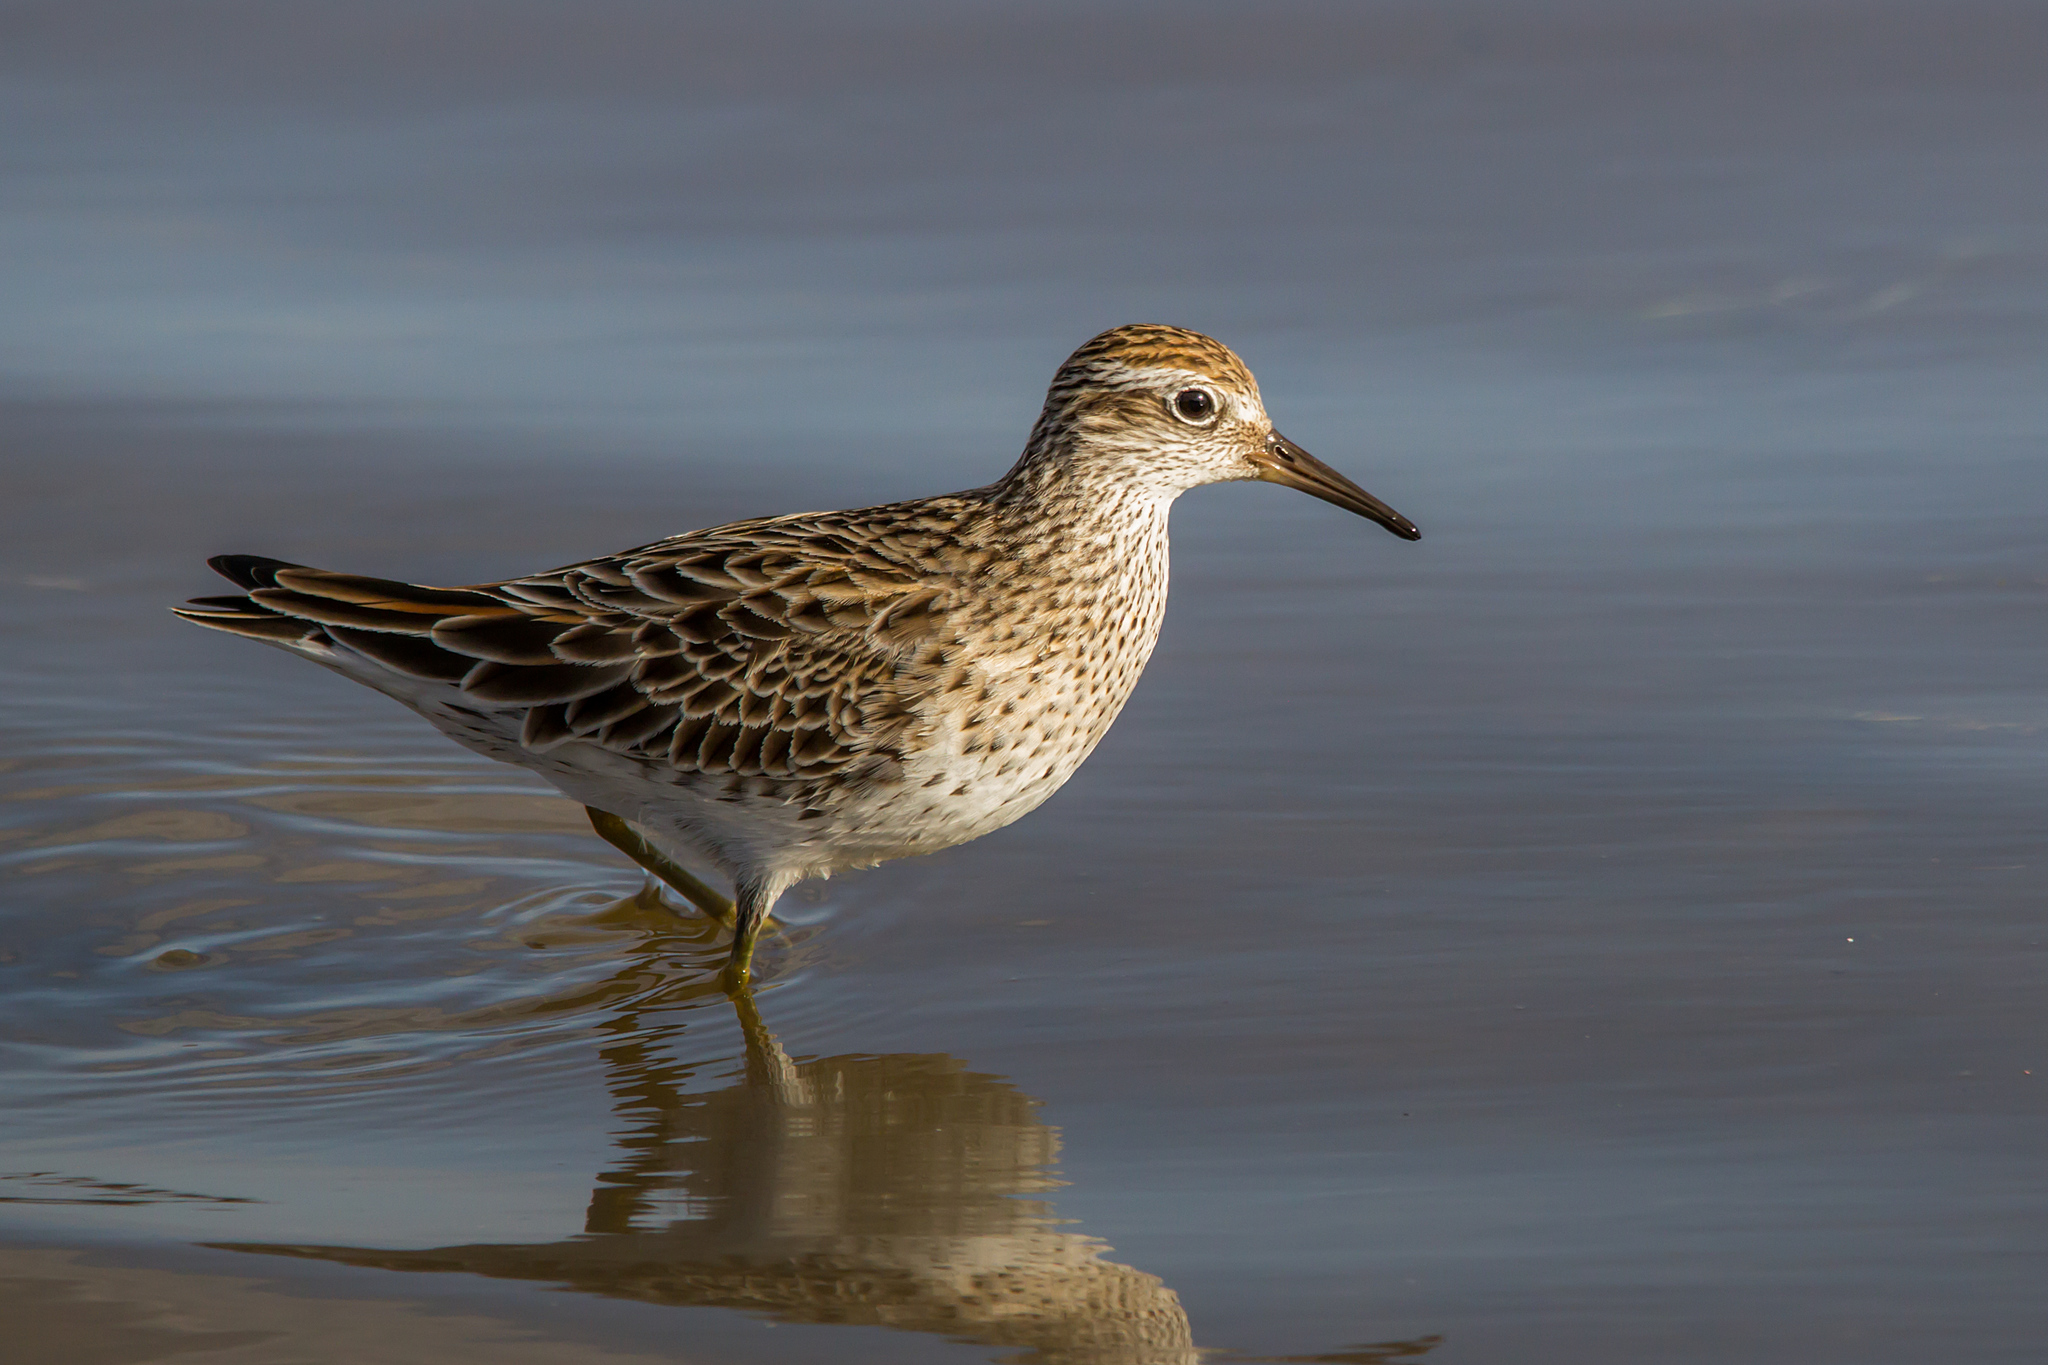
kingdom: Animalia
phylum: Chordata
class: Aves
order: Charadriiformes
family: Scolopacidae
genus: Calidris
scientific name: Calidris acuminata
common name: Sharp-tailed sandpiper
